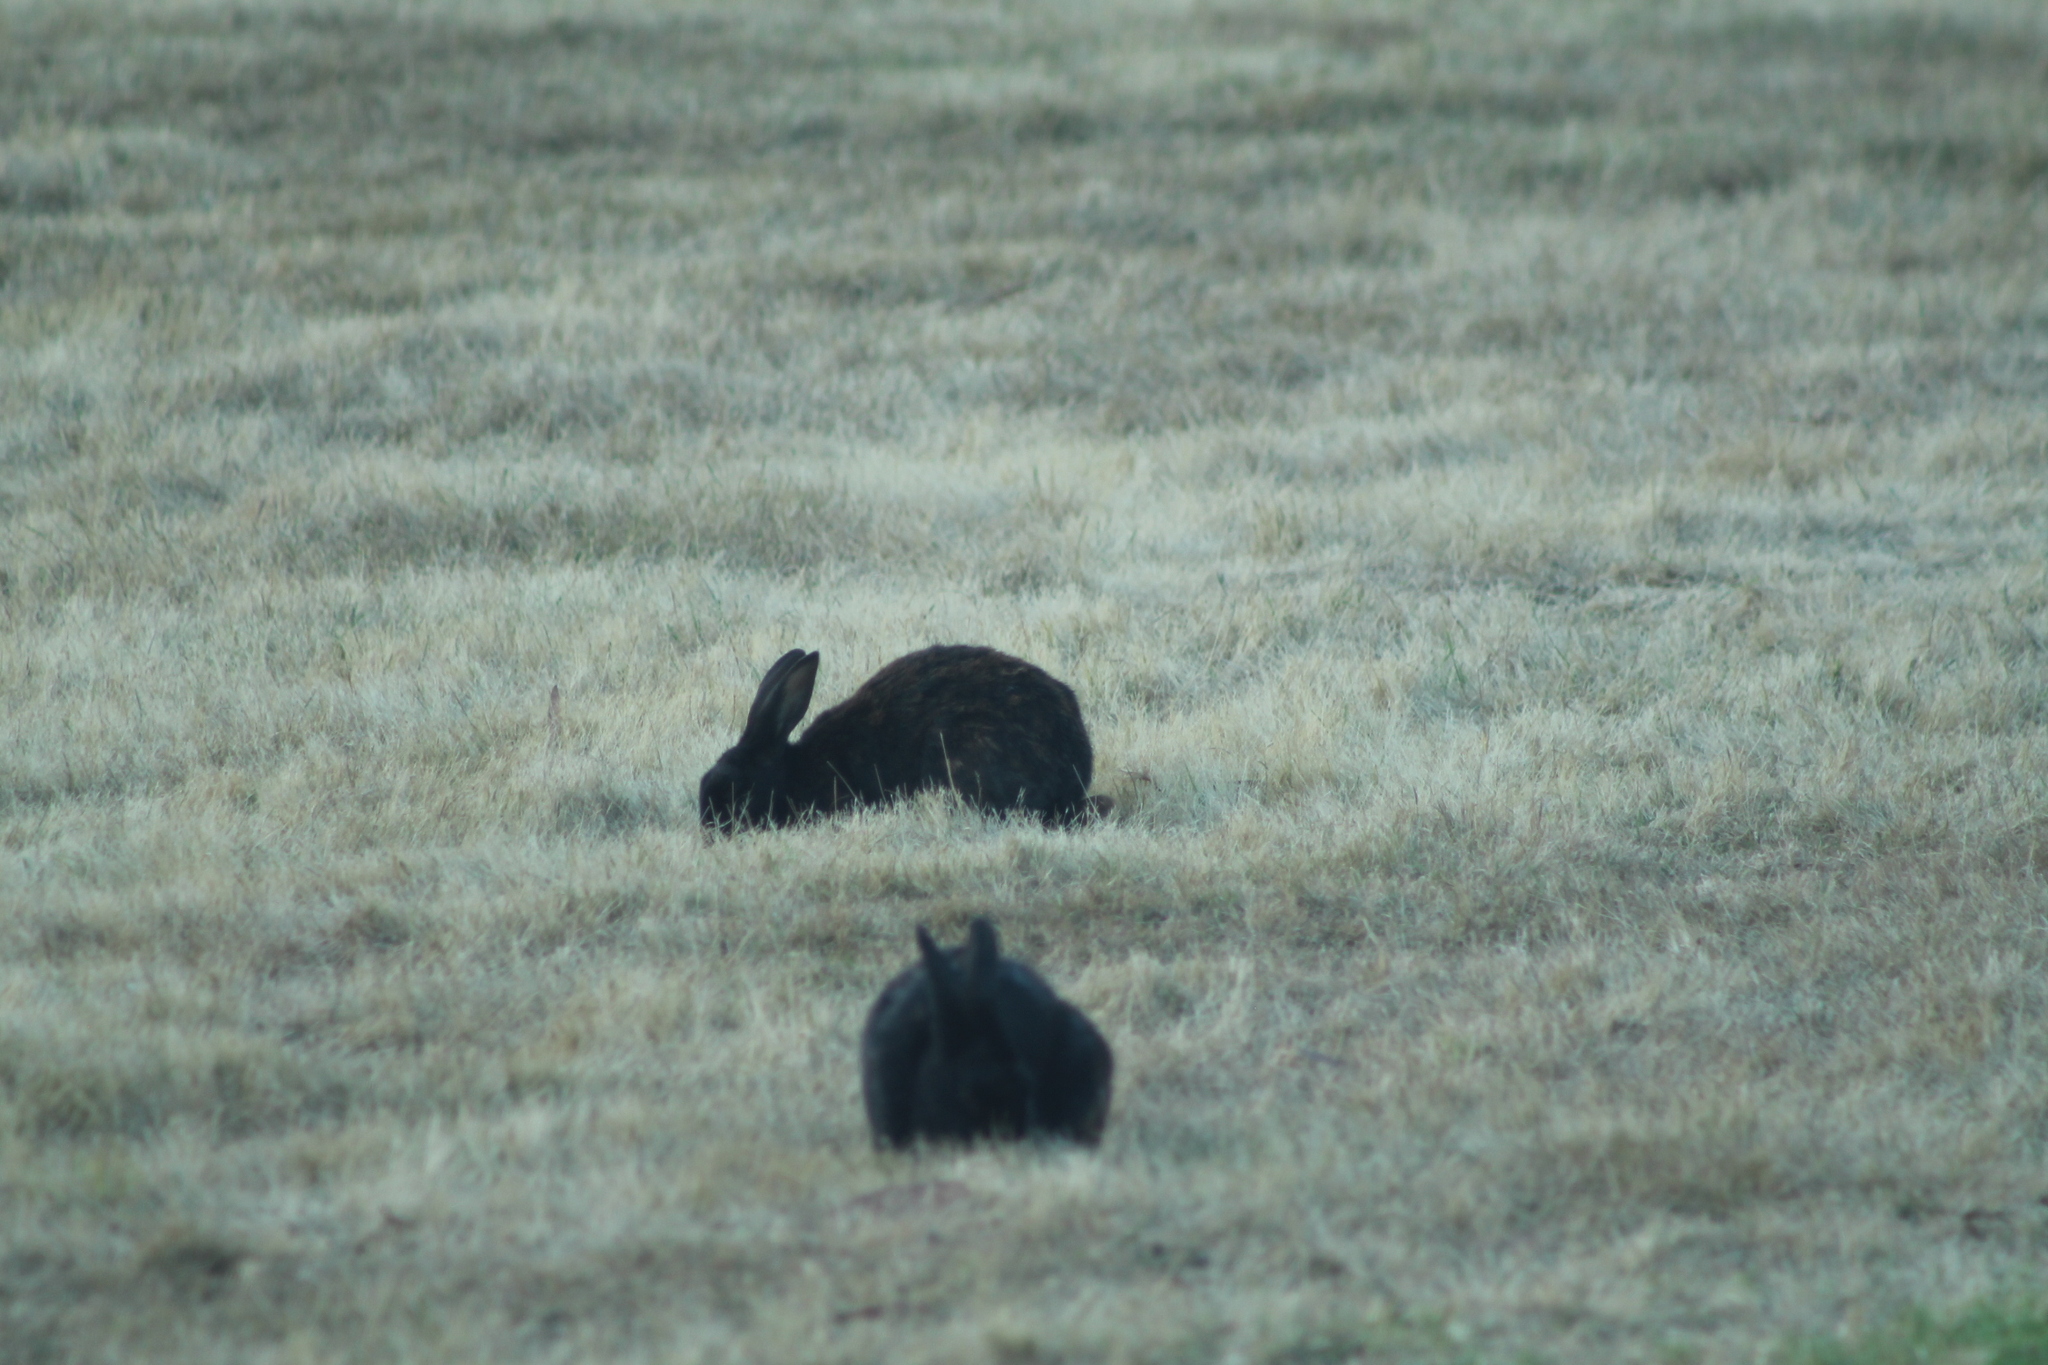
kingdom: Animalia
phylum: Chordata
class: Mammalia
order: Lagomorpha
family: Leporidae
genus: Oryctolagus
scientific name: Oryctolagus cuniculus
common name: European rabbit
